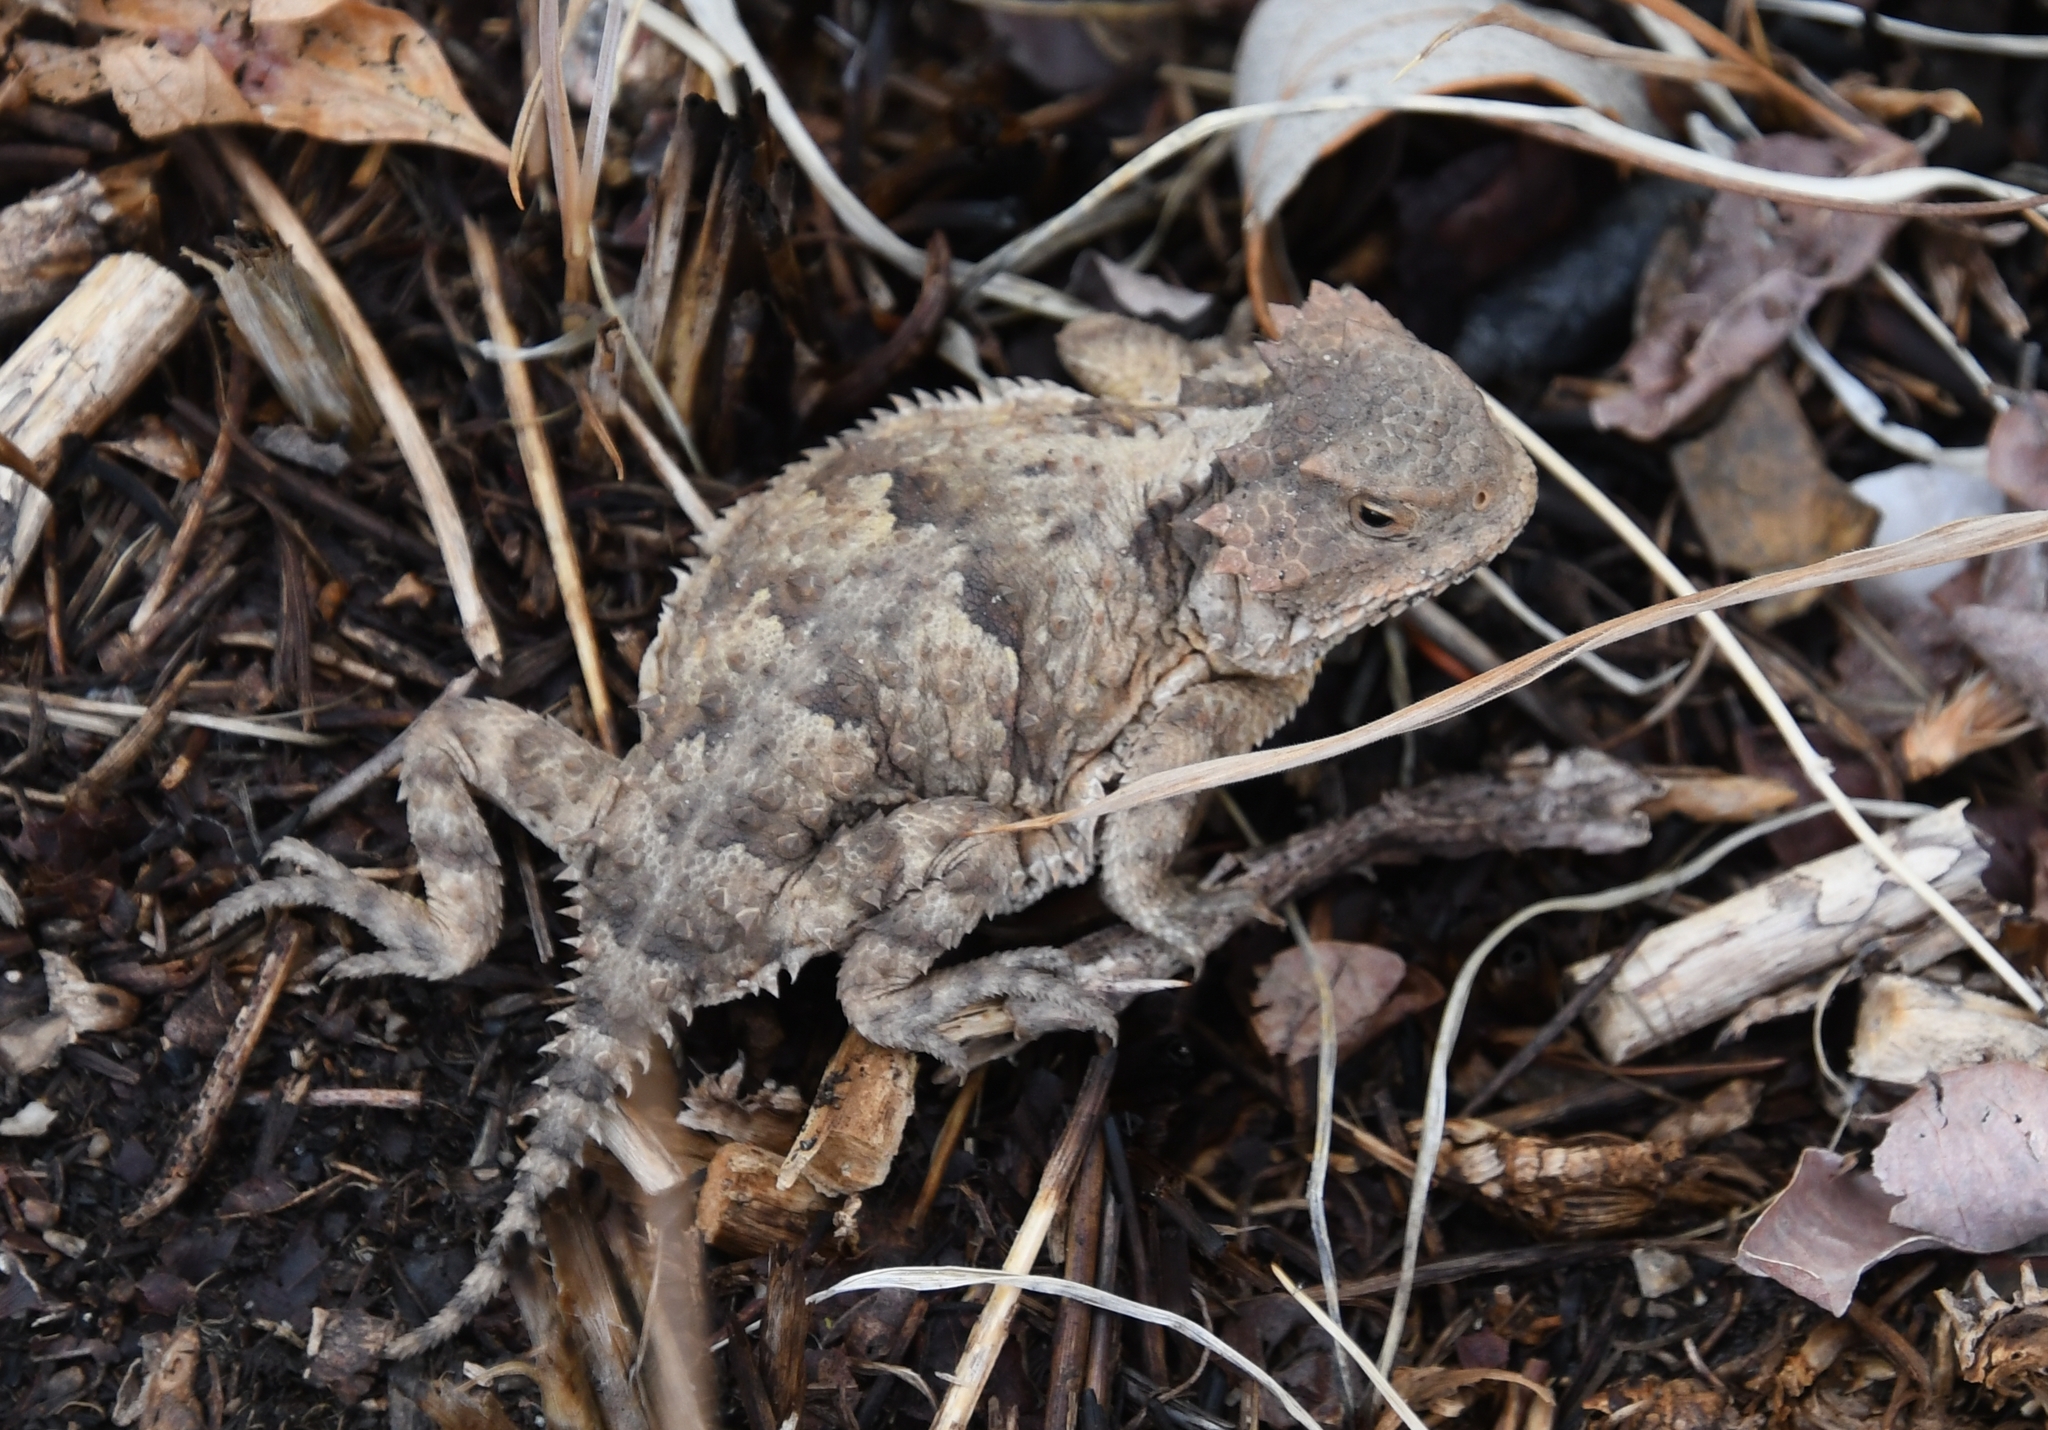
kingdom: Animalia
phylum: Chordata
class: Squamata
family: Phrynosomatidae
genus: Phrynosoma
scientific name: Phrynosoma hernandesi
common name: Greater short-horned lizard
